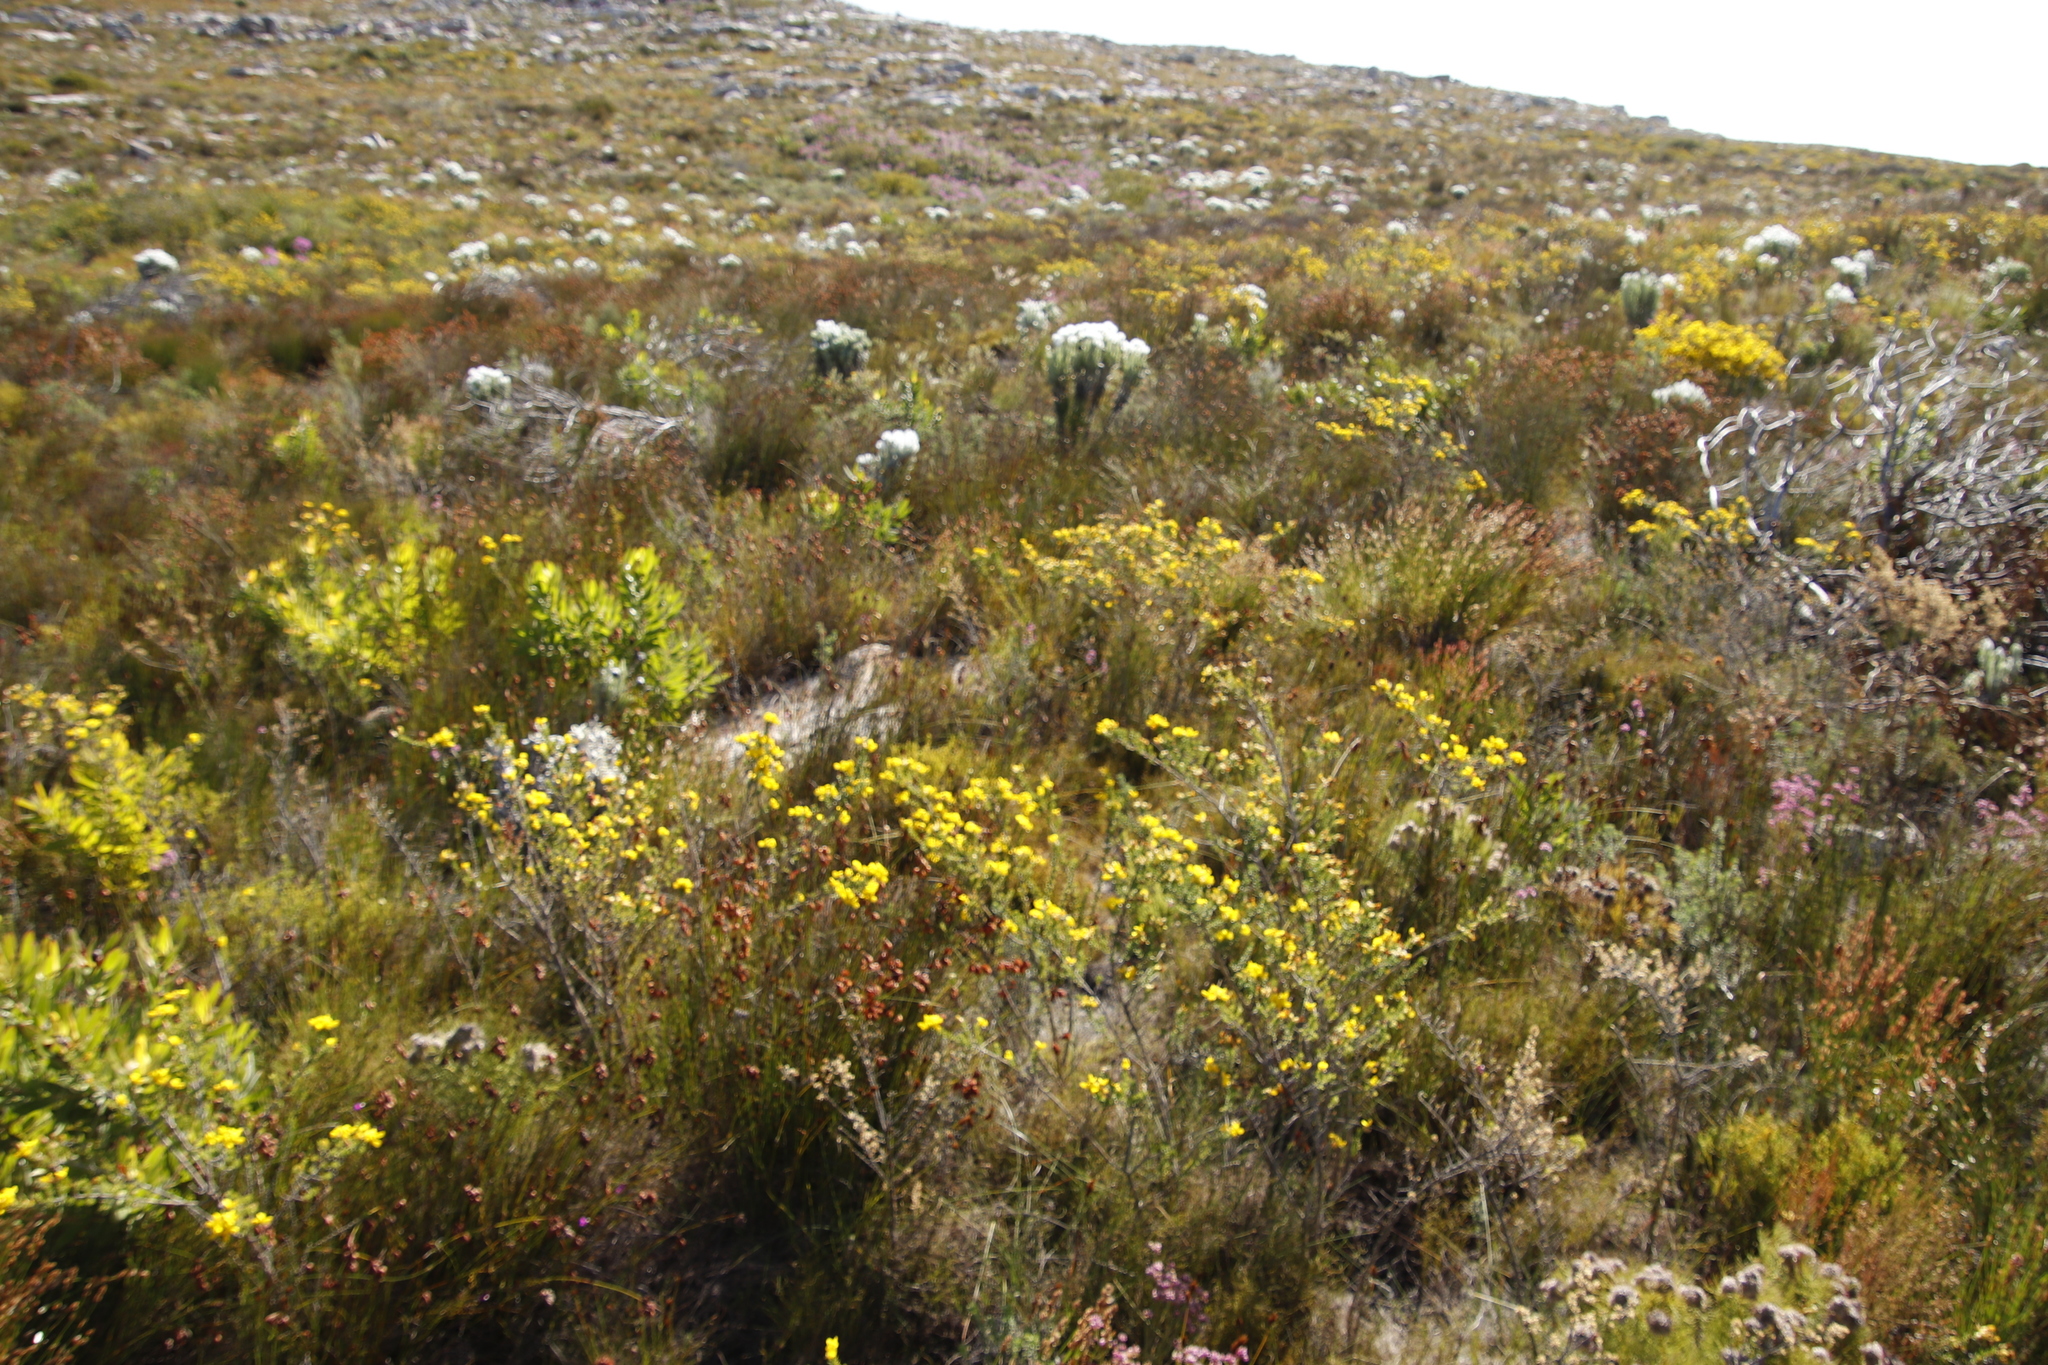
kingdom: Plantae
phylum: Tracheophyta
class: Magnoliopsida
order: Fabales
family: Fabaceae
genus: Aspalathus
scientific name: Aspalathus carnosa
